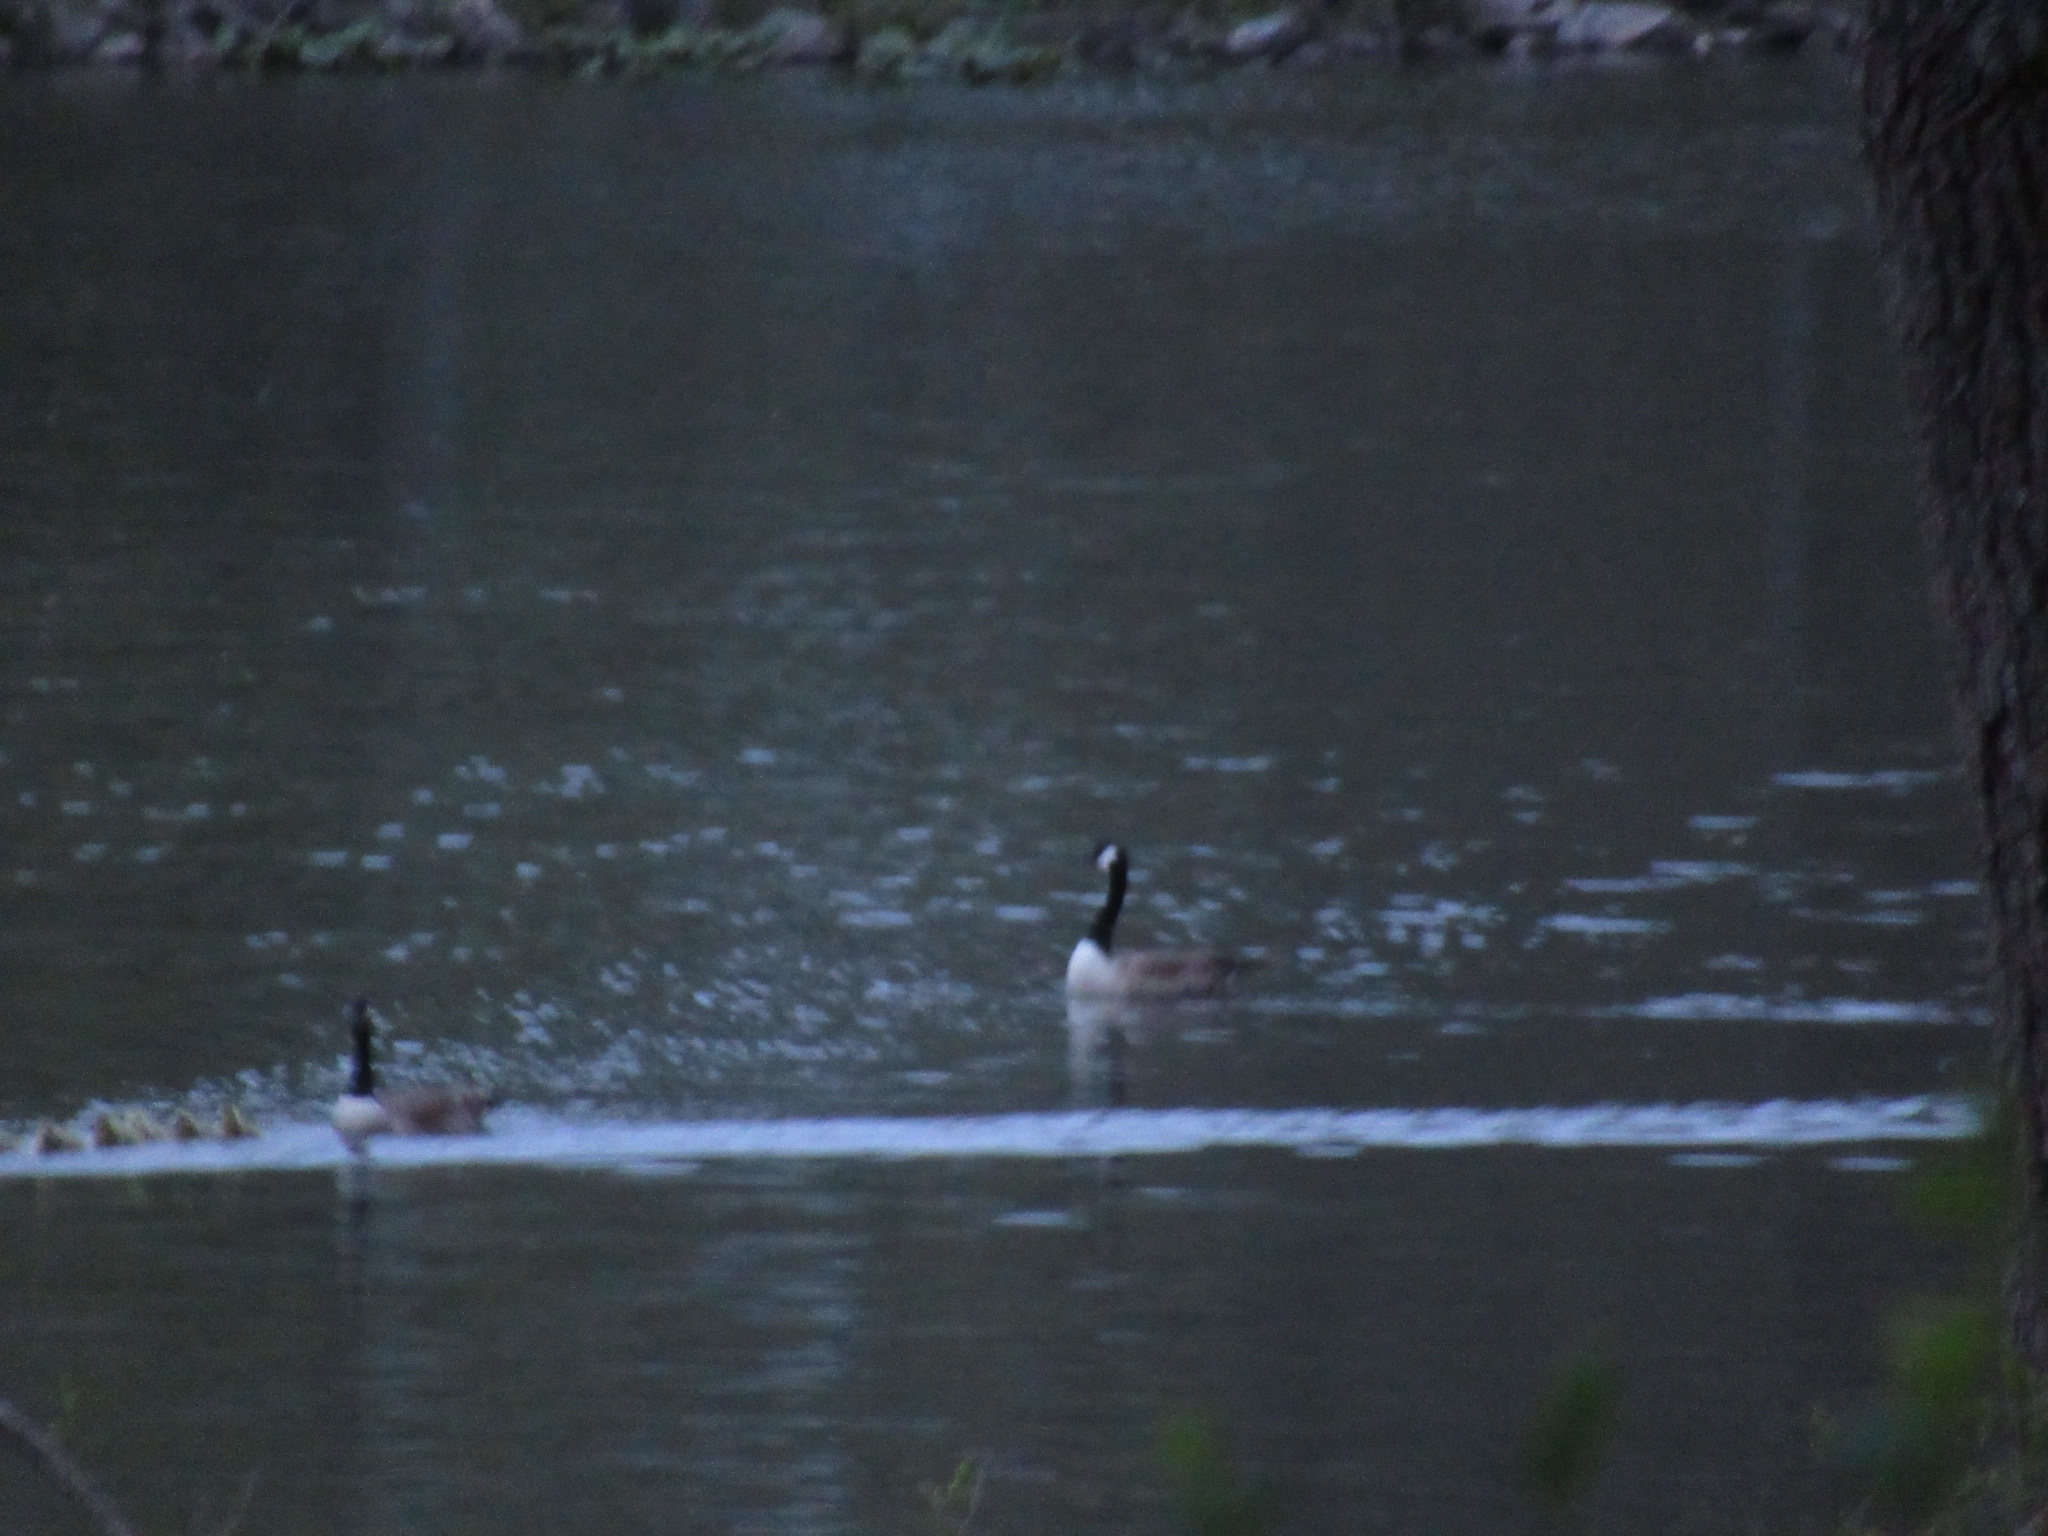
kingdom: Animalia
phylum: Chordata
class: Aves
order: Anseriformes
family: Anatidae
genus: Branta
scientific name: Branta canadensis
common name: Canada goose
